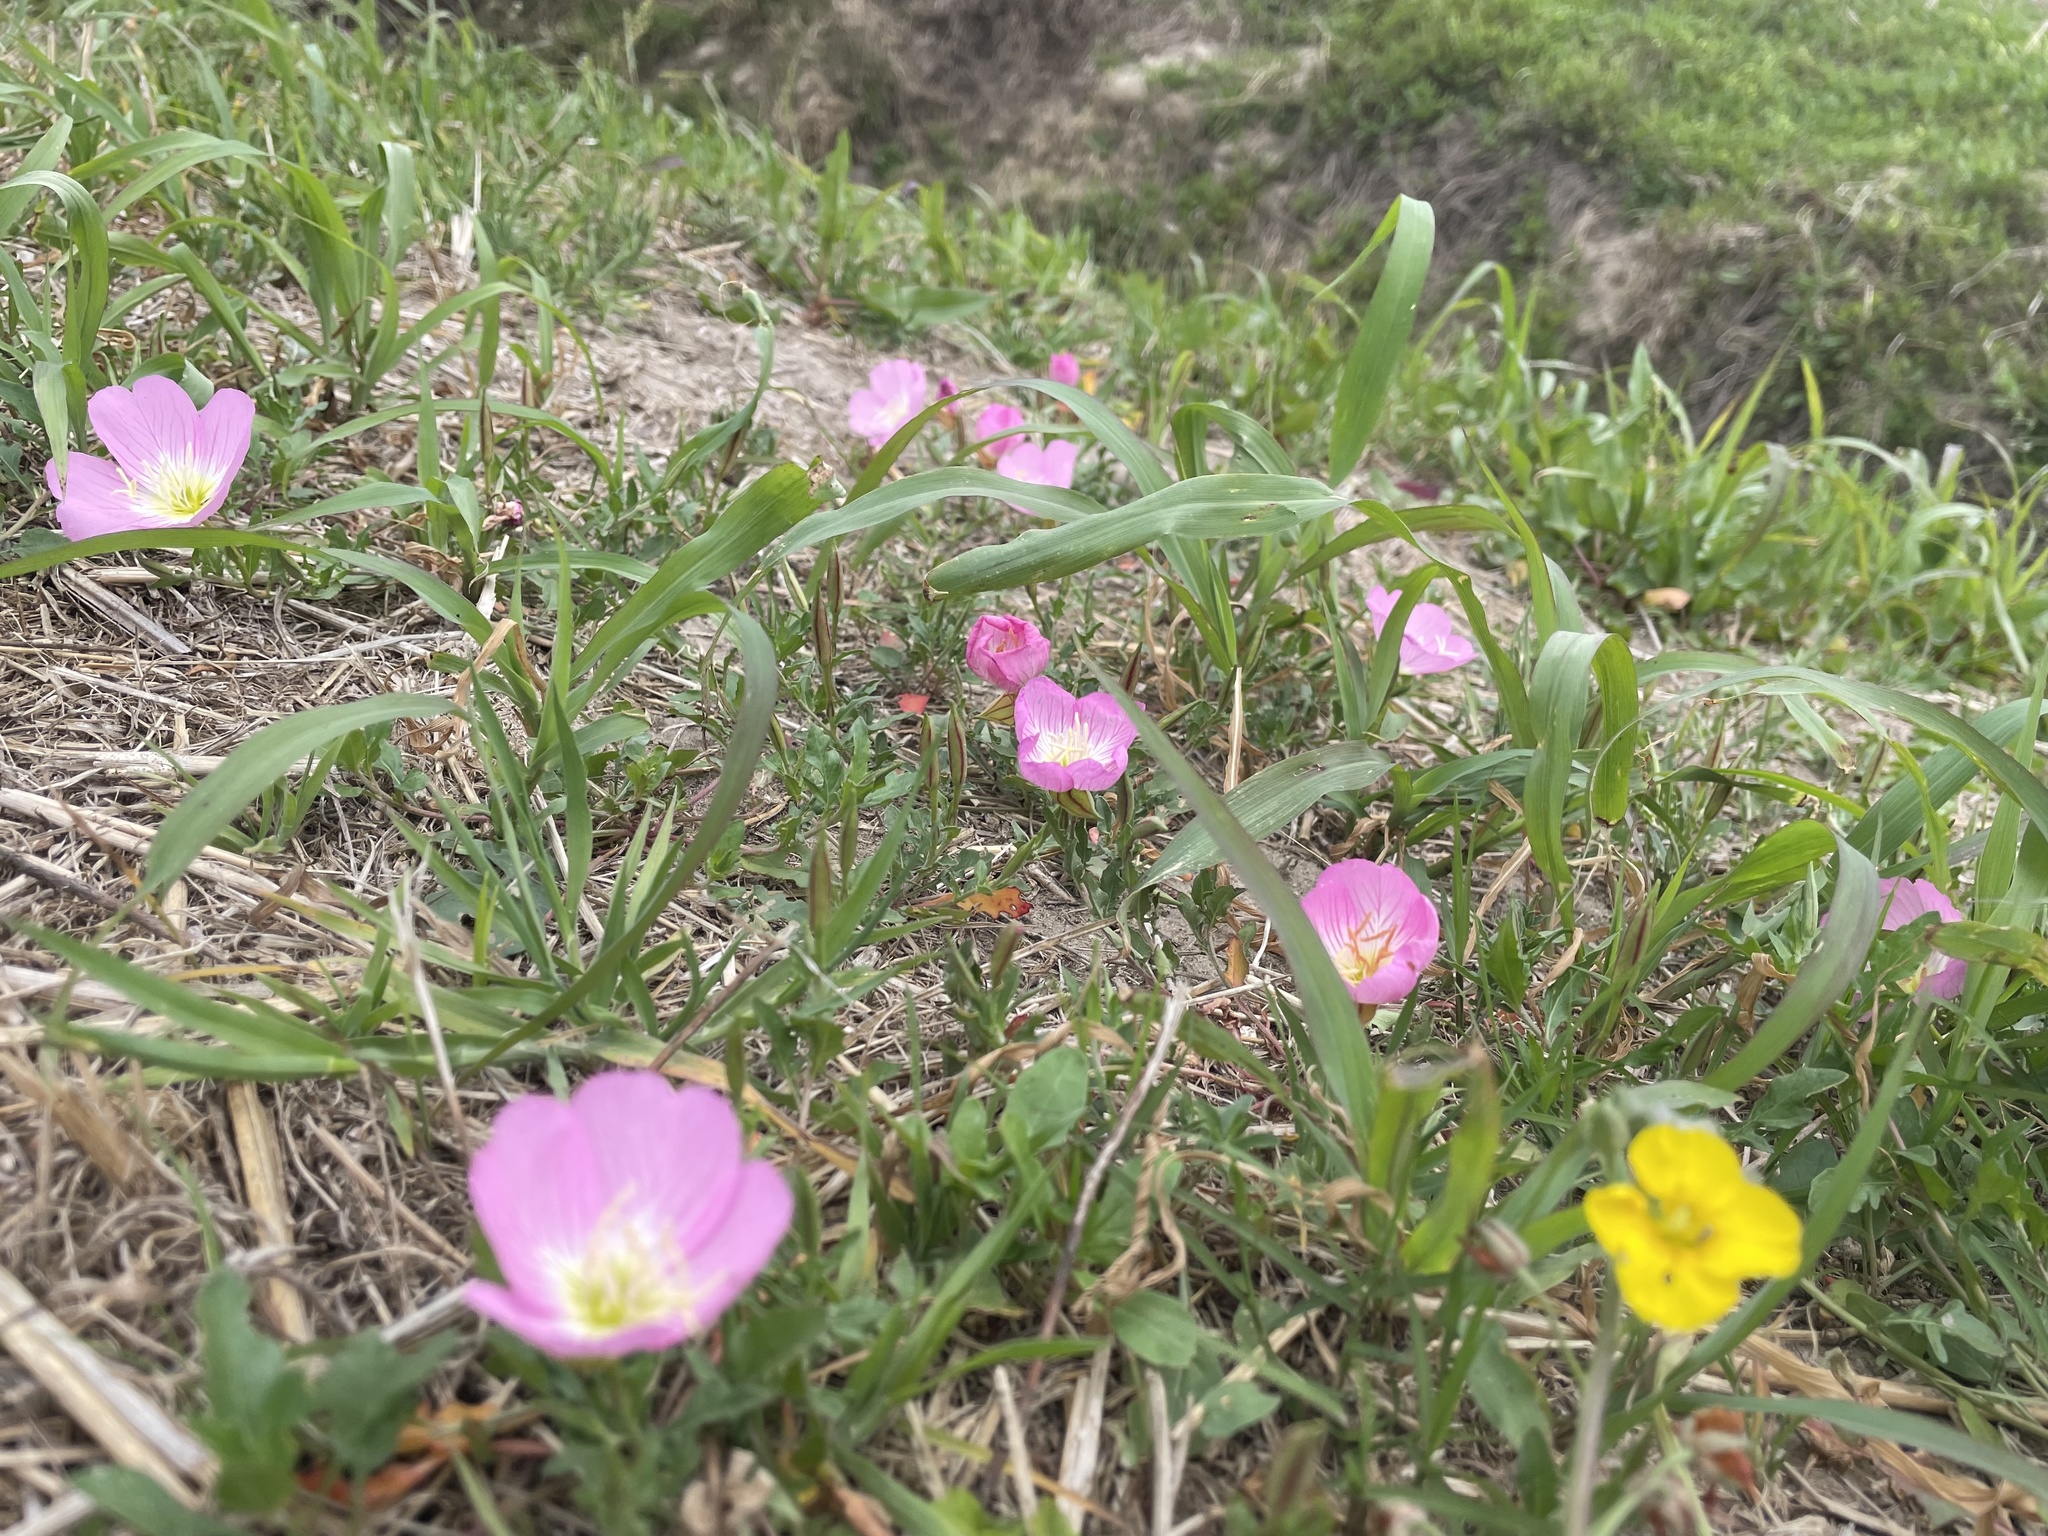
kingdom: Plantae
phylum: Tracheophyta
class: Magnoliopsida
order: Myrtales
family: Onagraceae
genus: Oenothera
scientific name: Oenothera speciosa
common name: White evening-primrose
